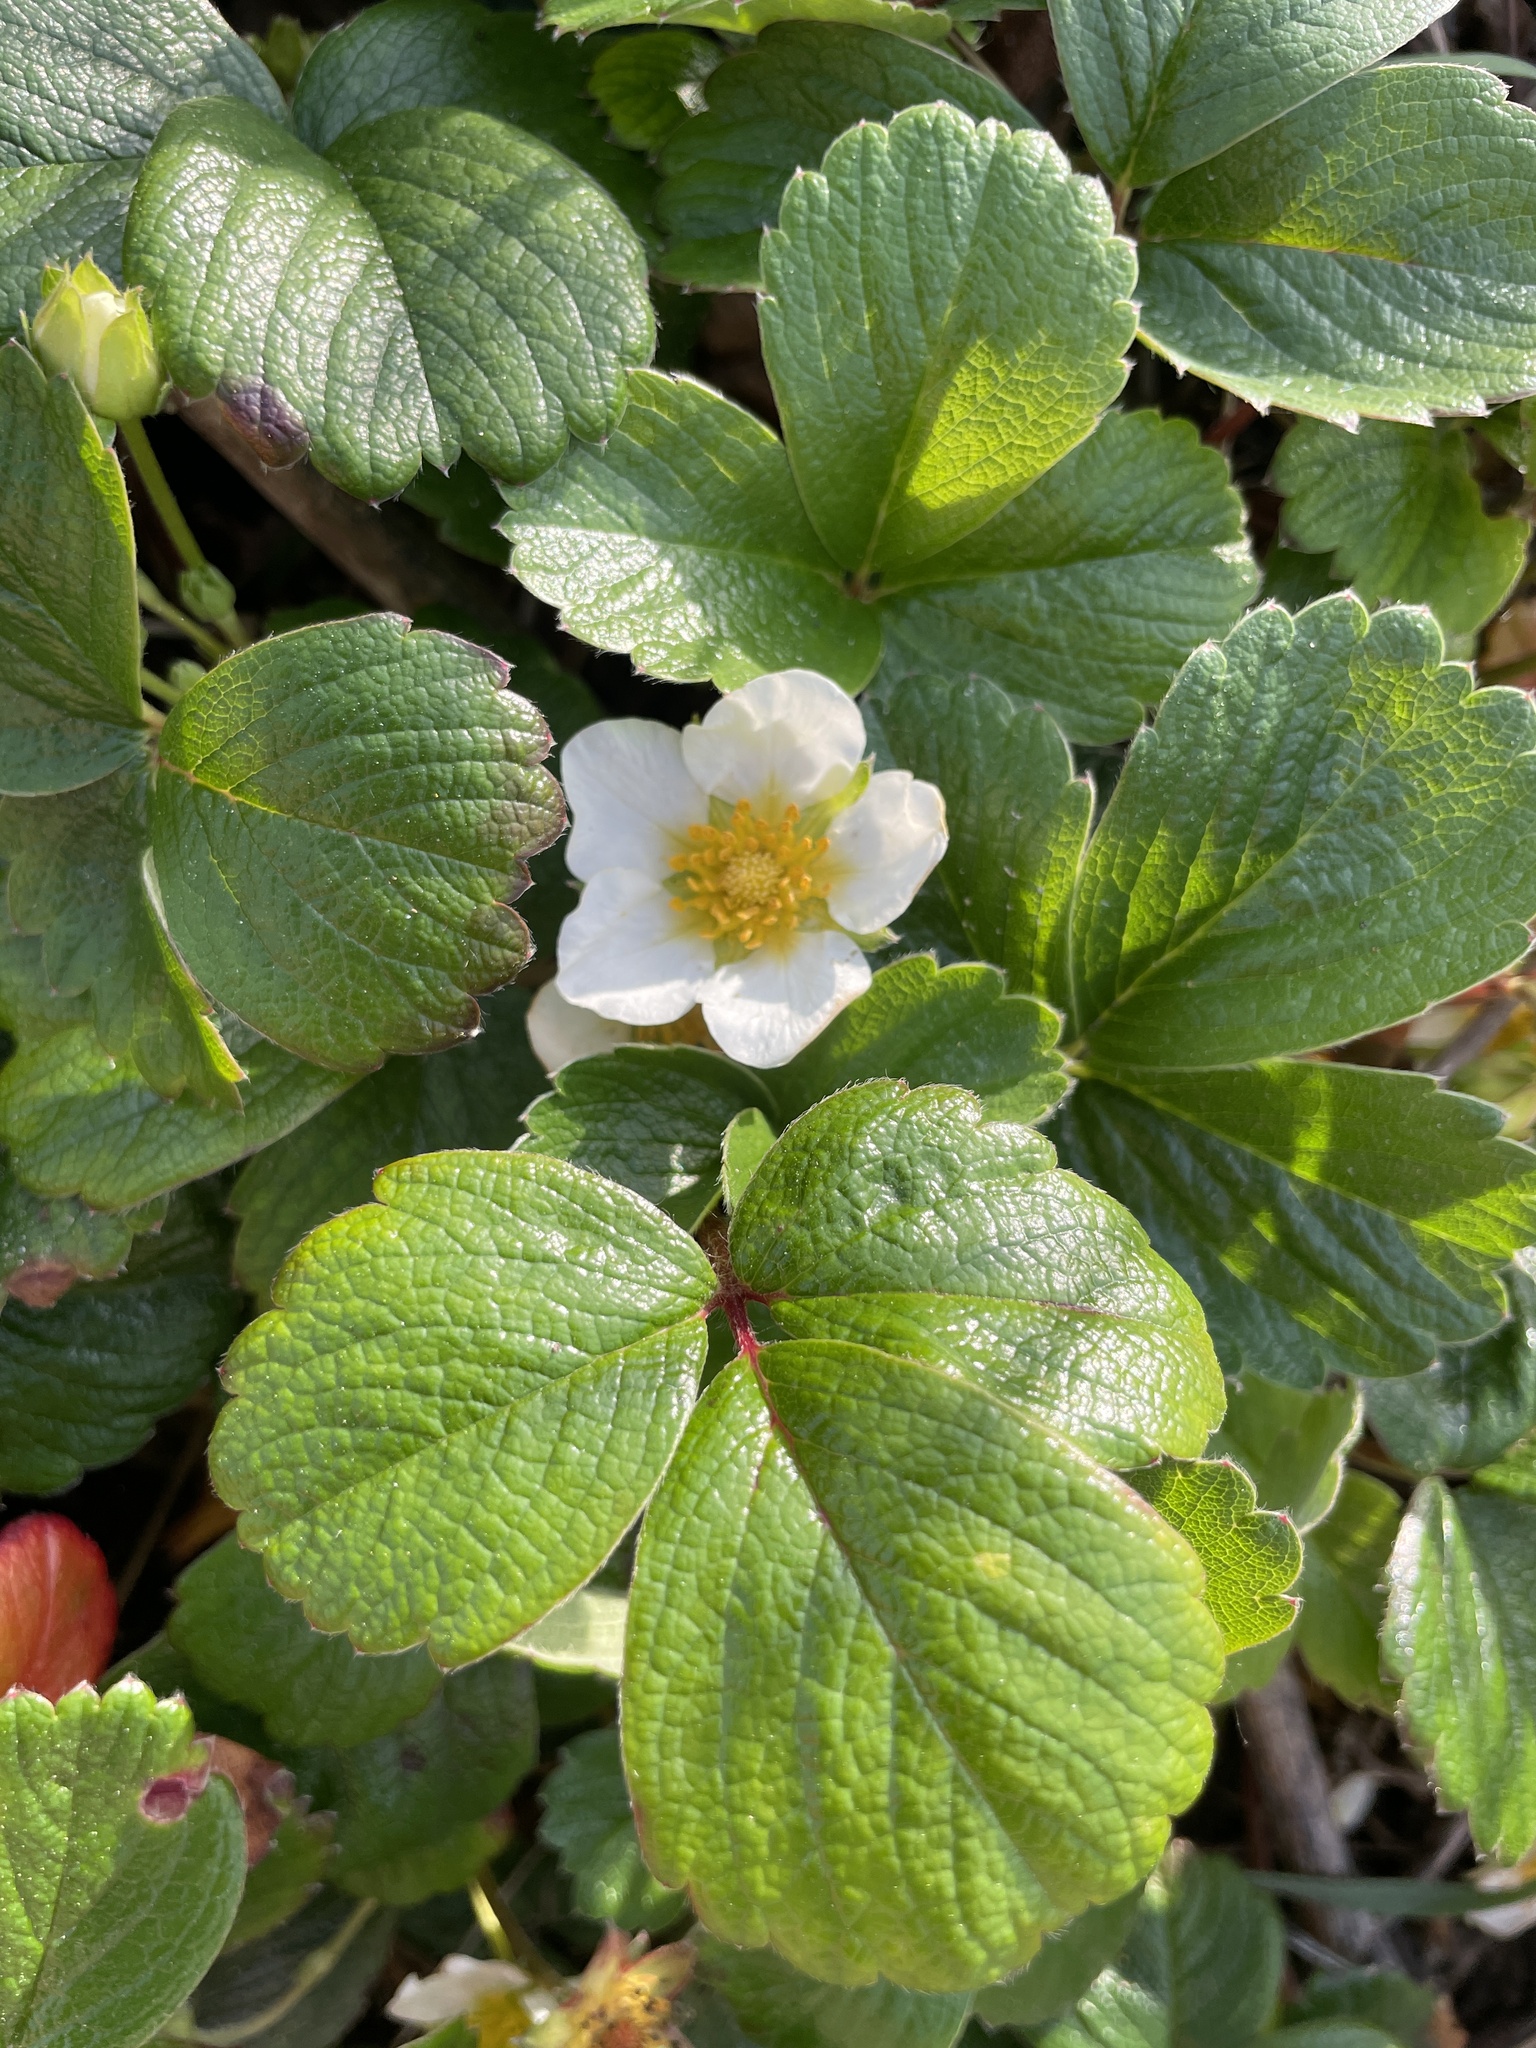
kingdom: Plantae
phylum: Tracheophyta
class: Magnoliopsida
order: Rosales
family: Rosaceae
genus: Fragaria
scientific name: Fragaria chiloensis
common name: Beach strawberry
